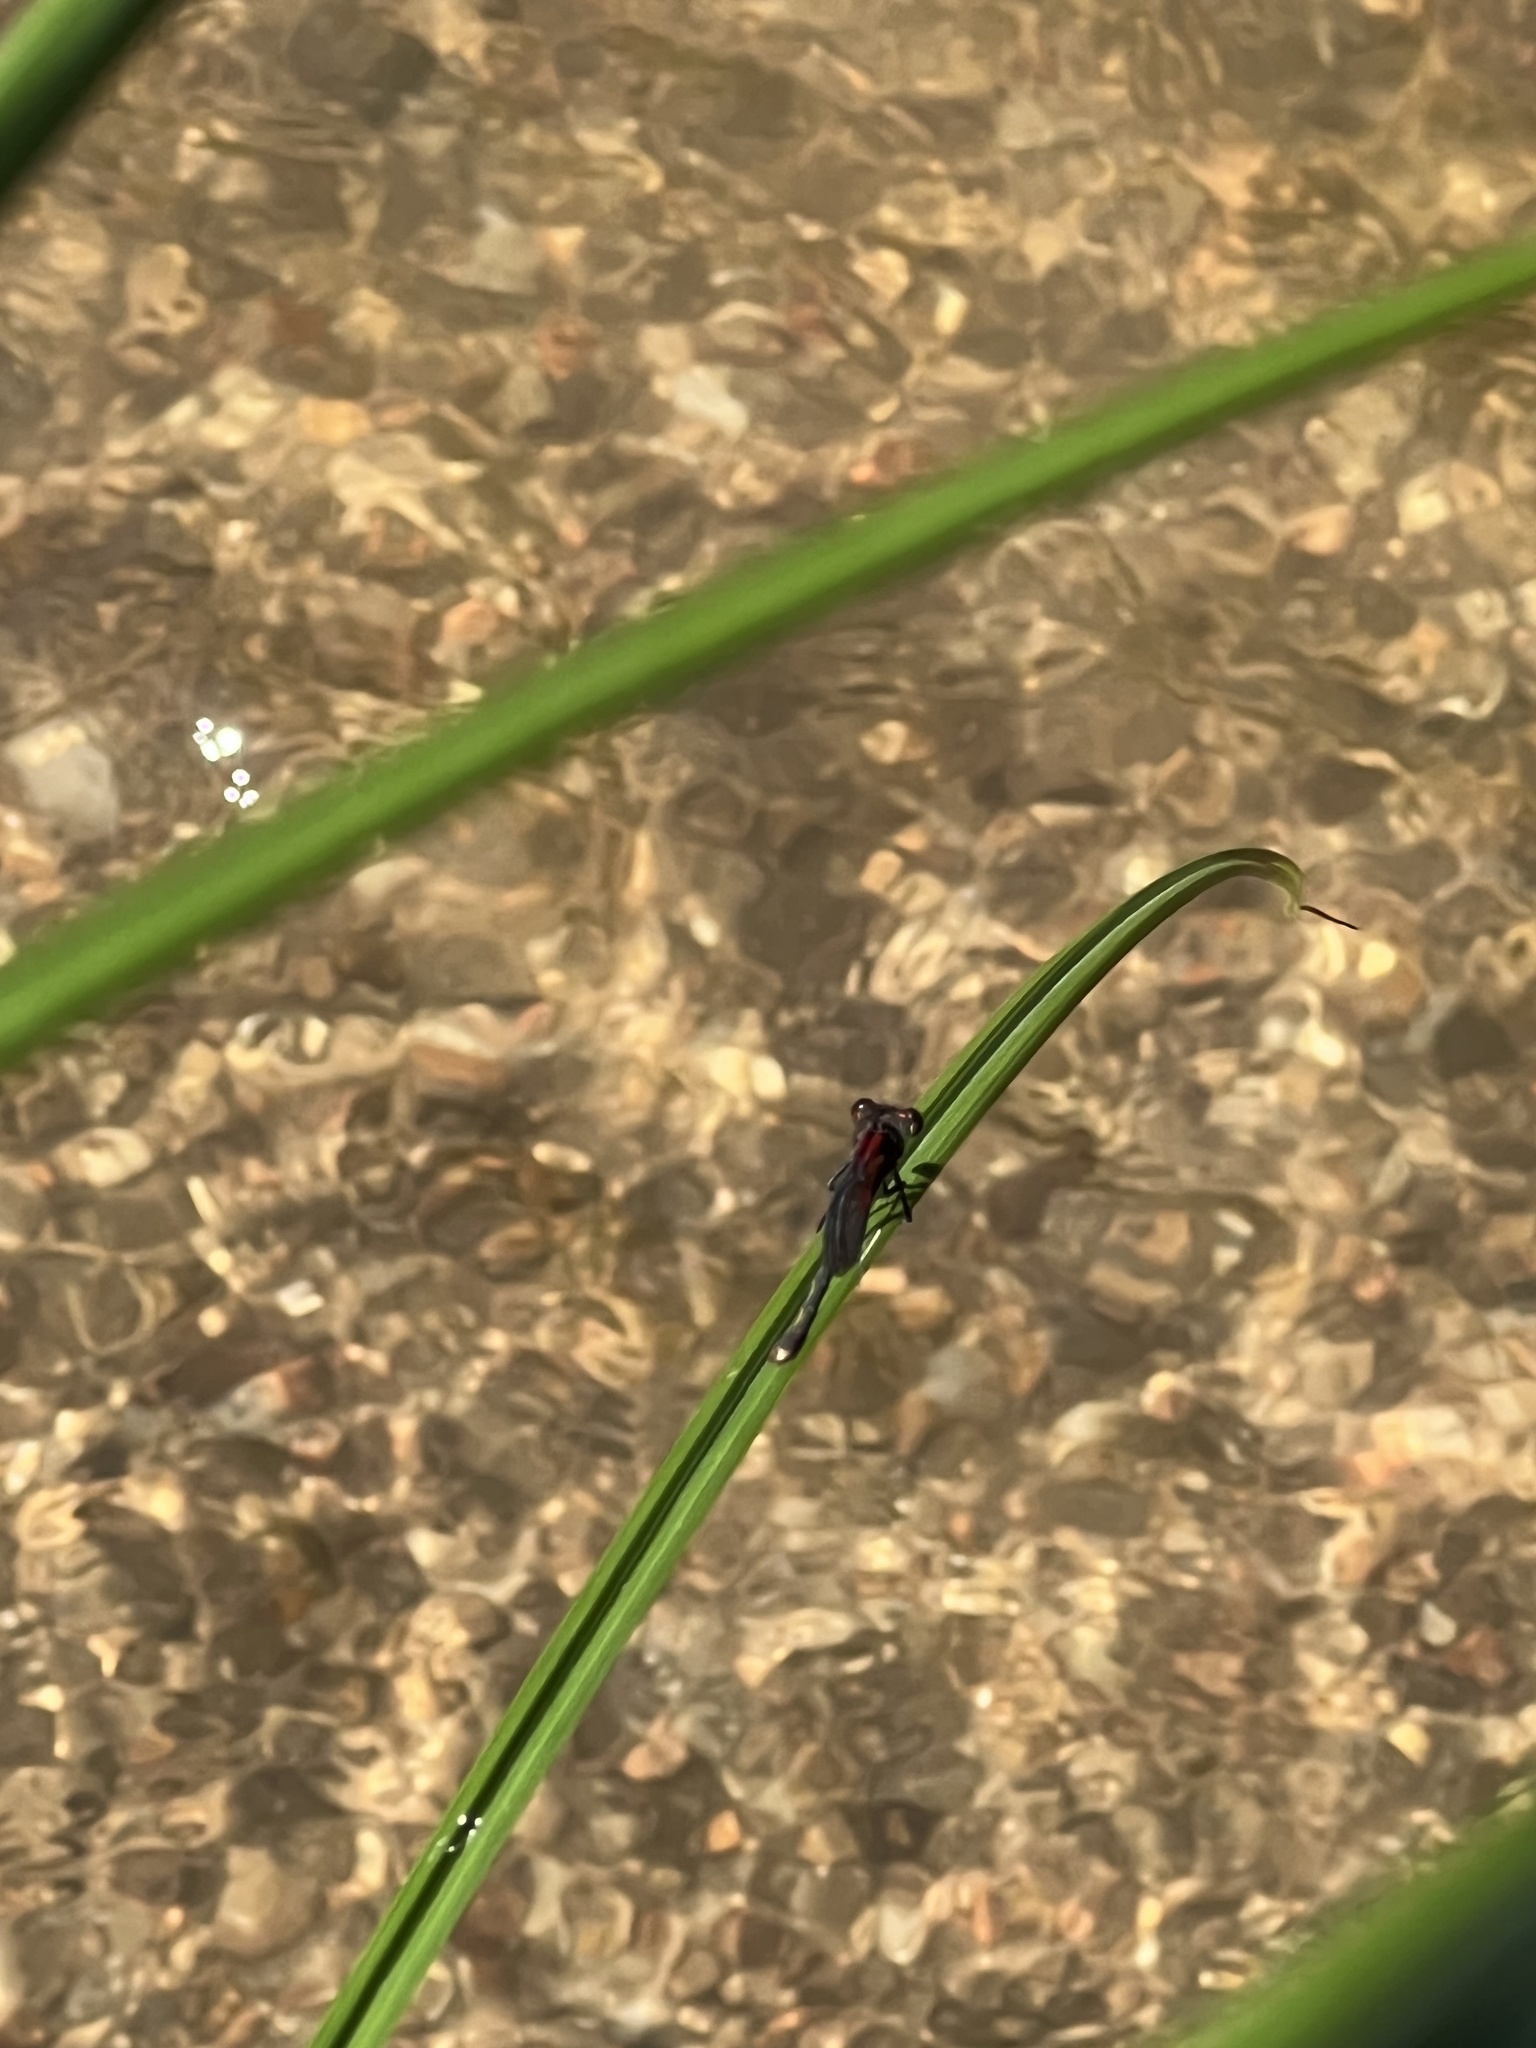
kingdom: Animalia
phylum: Arthropoda
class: Insecta
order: Odonata
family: Calopterygidae
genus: Hetaerina
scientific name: Hetaerina americana
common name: American rubyspot
